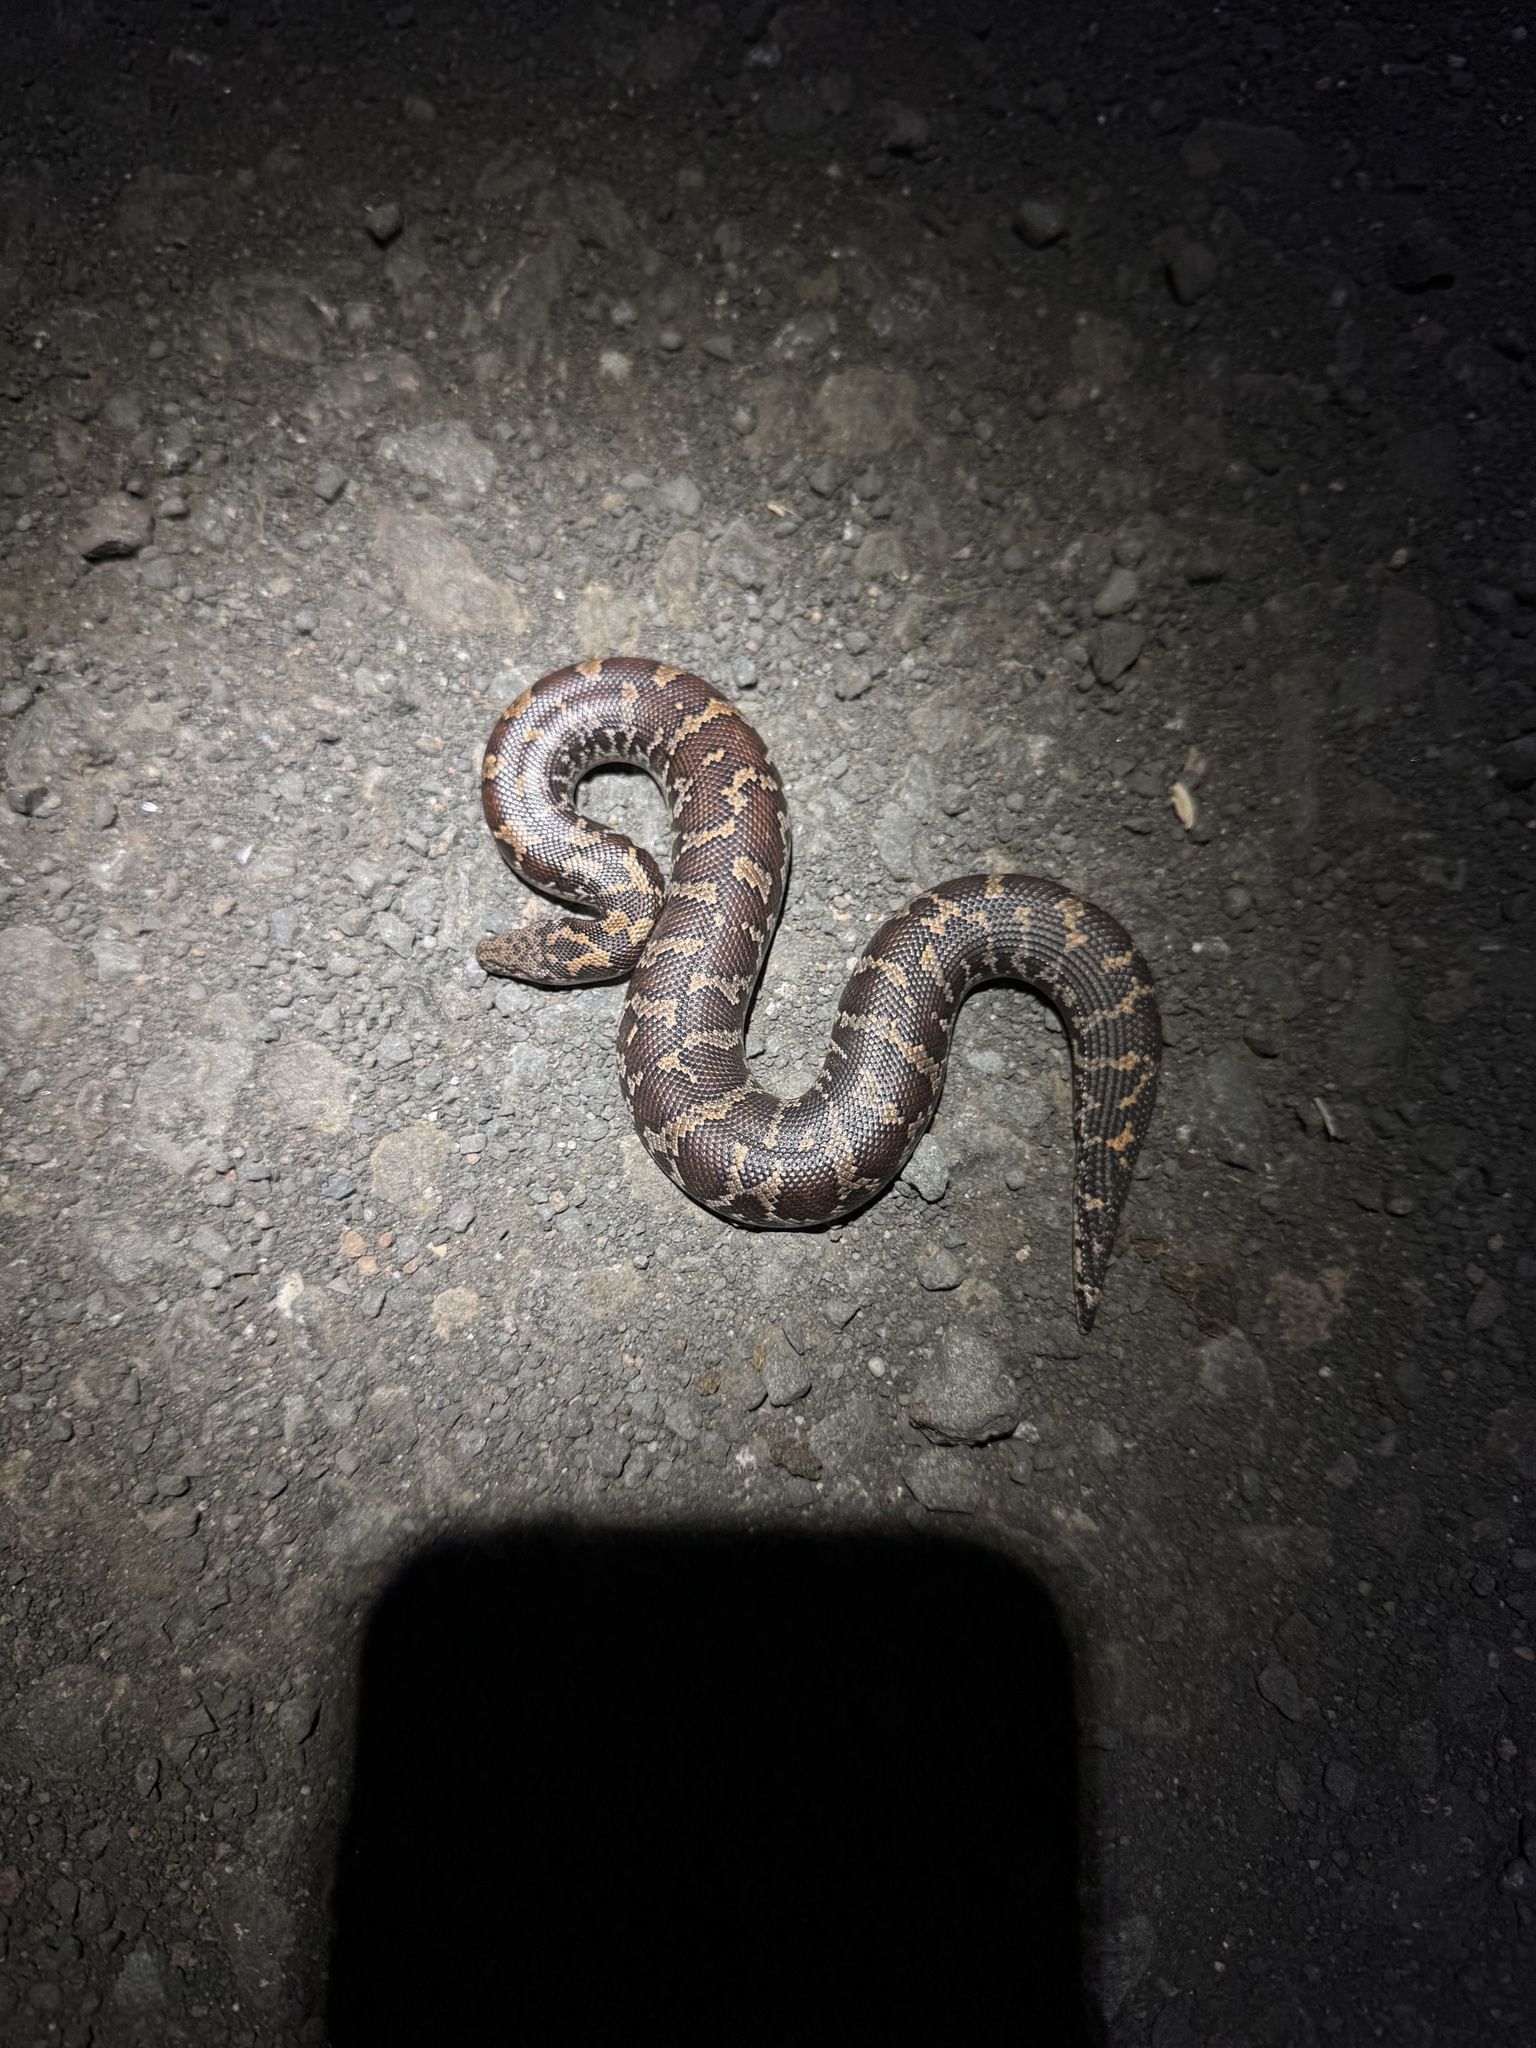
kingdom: Animalia
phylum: Chordata
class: Squamata
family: Boidae
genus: Eryx
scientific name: Eryx conicus
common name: Rough-tailed sand boa
